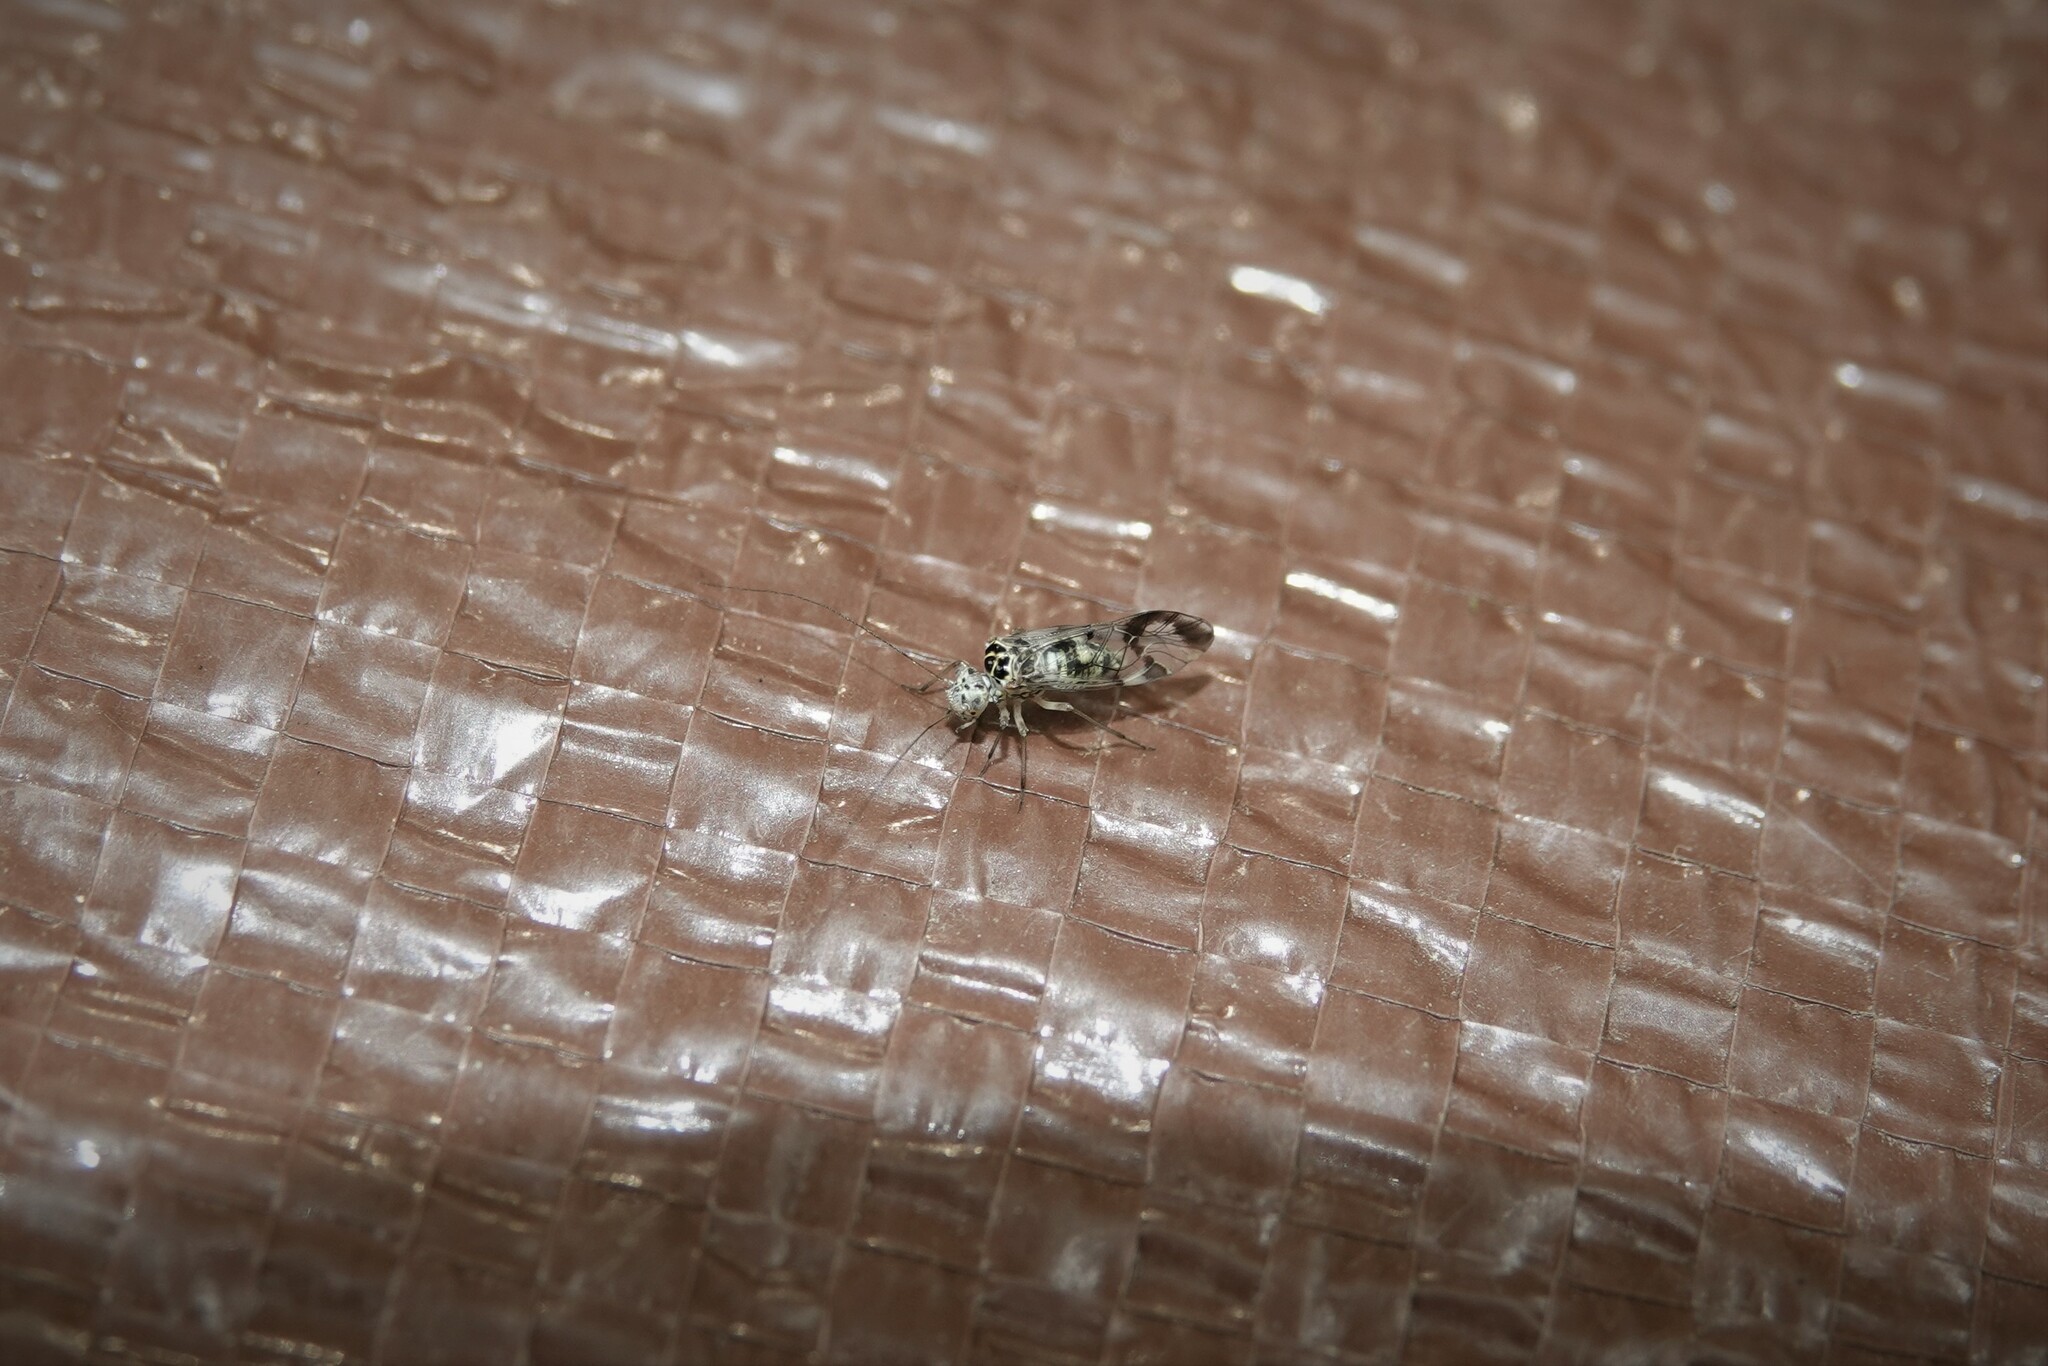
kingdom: Animalia
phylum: Arthropoda
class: Insecta
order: Psocodea
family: Psocidae
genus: Metylophorus
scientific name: Metylophorus novaescotiae
